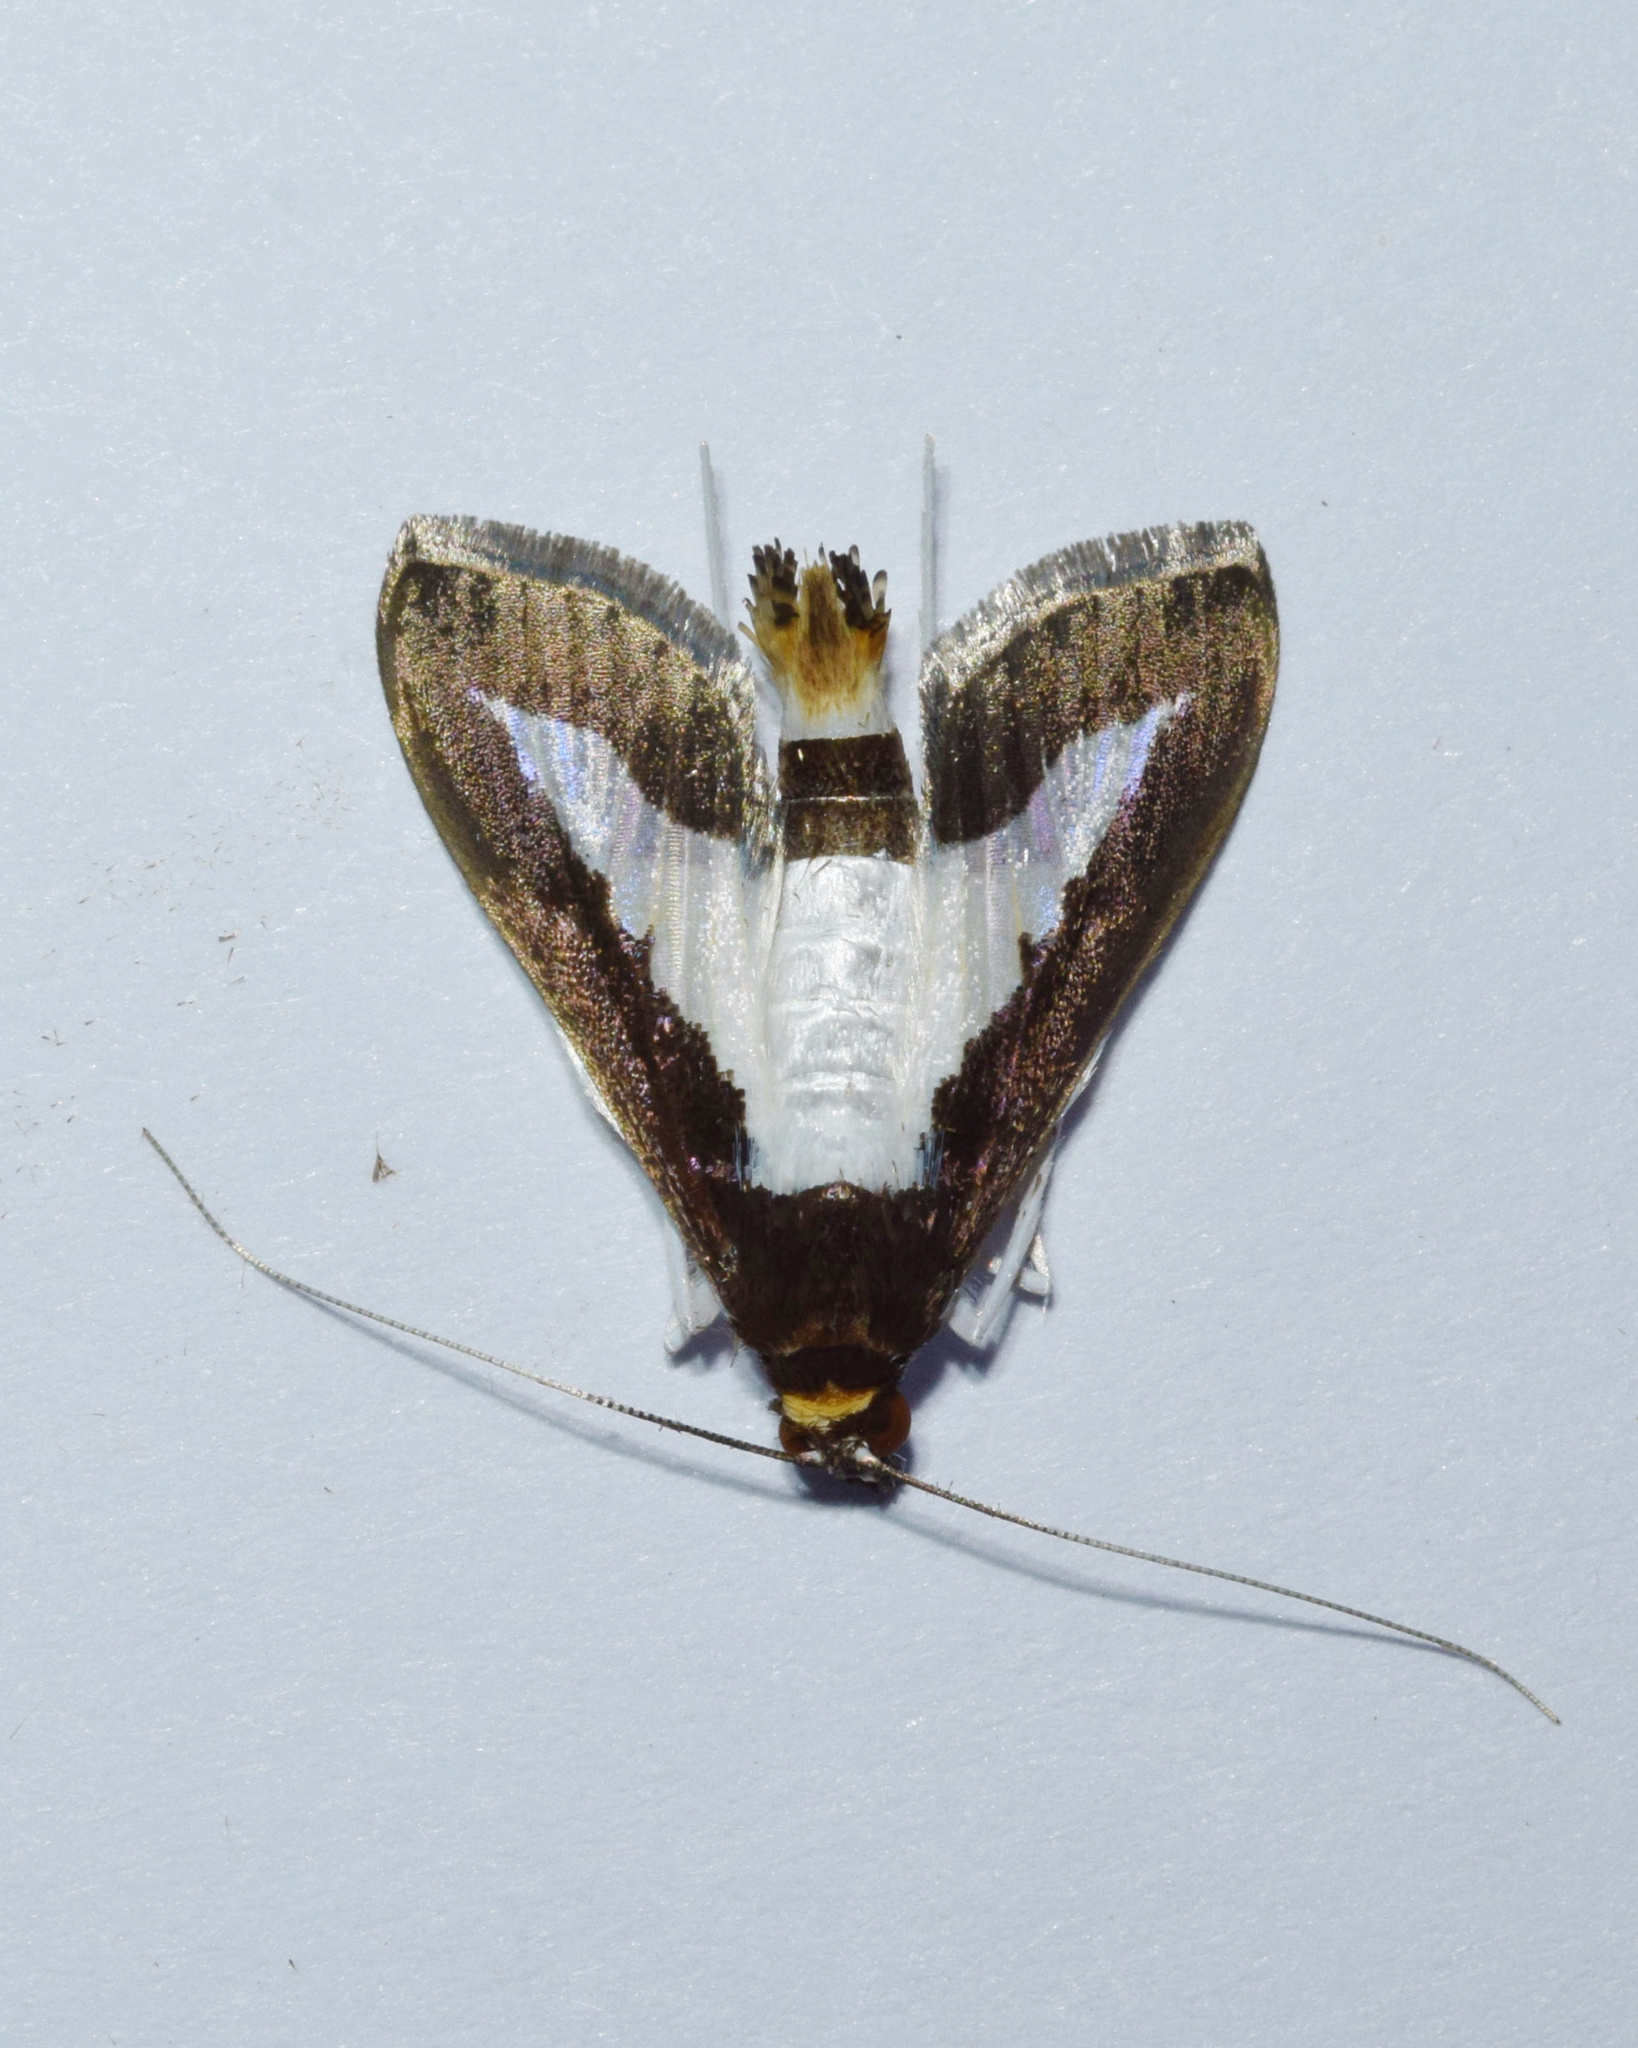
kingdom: Animalia
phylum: Arthropoda
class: Insecta
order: Lepidoptera
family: Crambidae
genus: Diaphania
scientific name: Diaphania indica
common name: Cucumber moth
